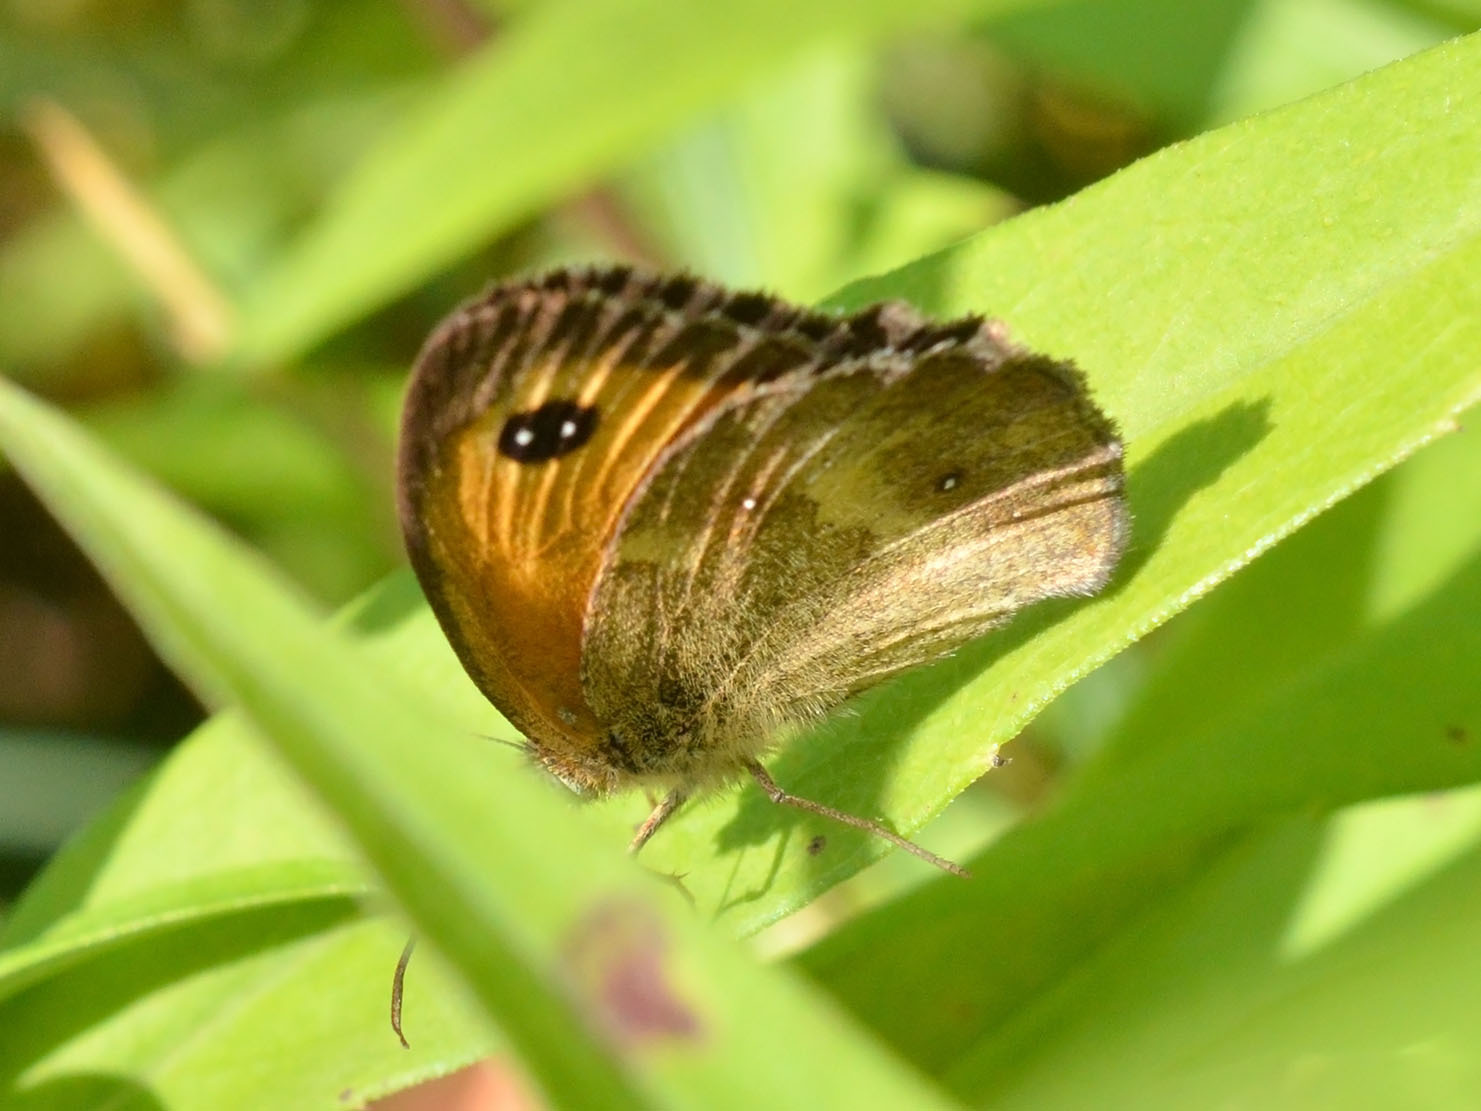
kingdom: Animalia
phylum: Arthropoda
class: Insecta
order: Lepidoptera
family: Nymphalidae
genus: Pyronia
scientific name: Pyronia tithonus
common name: Gatekeeper
